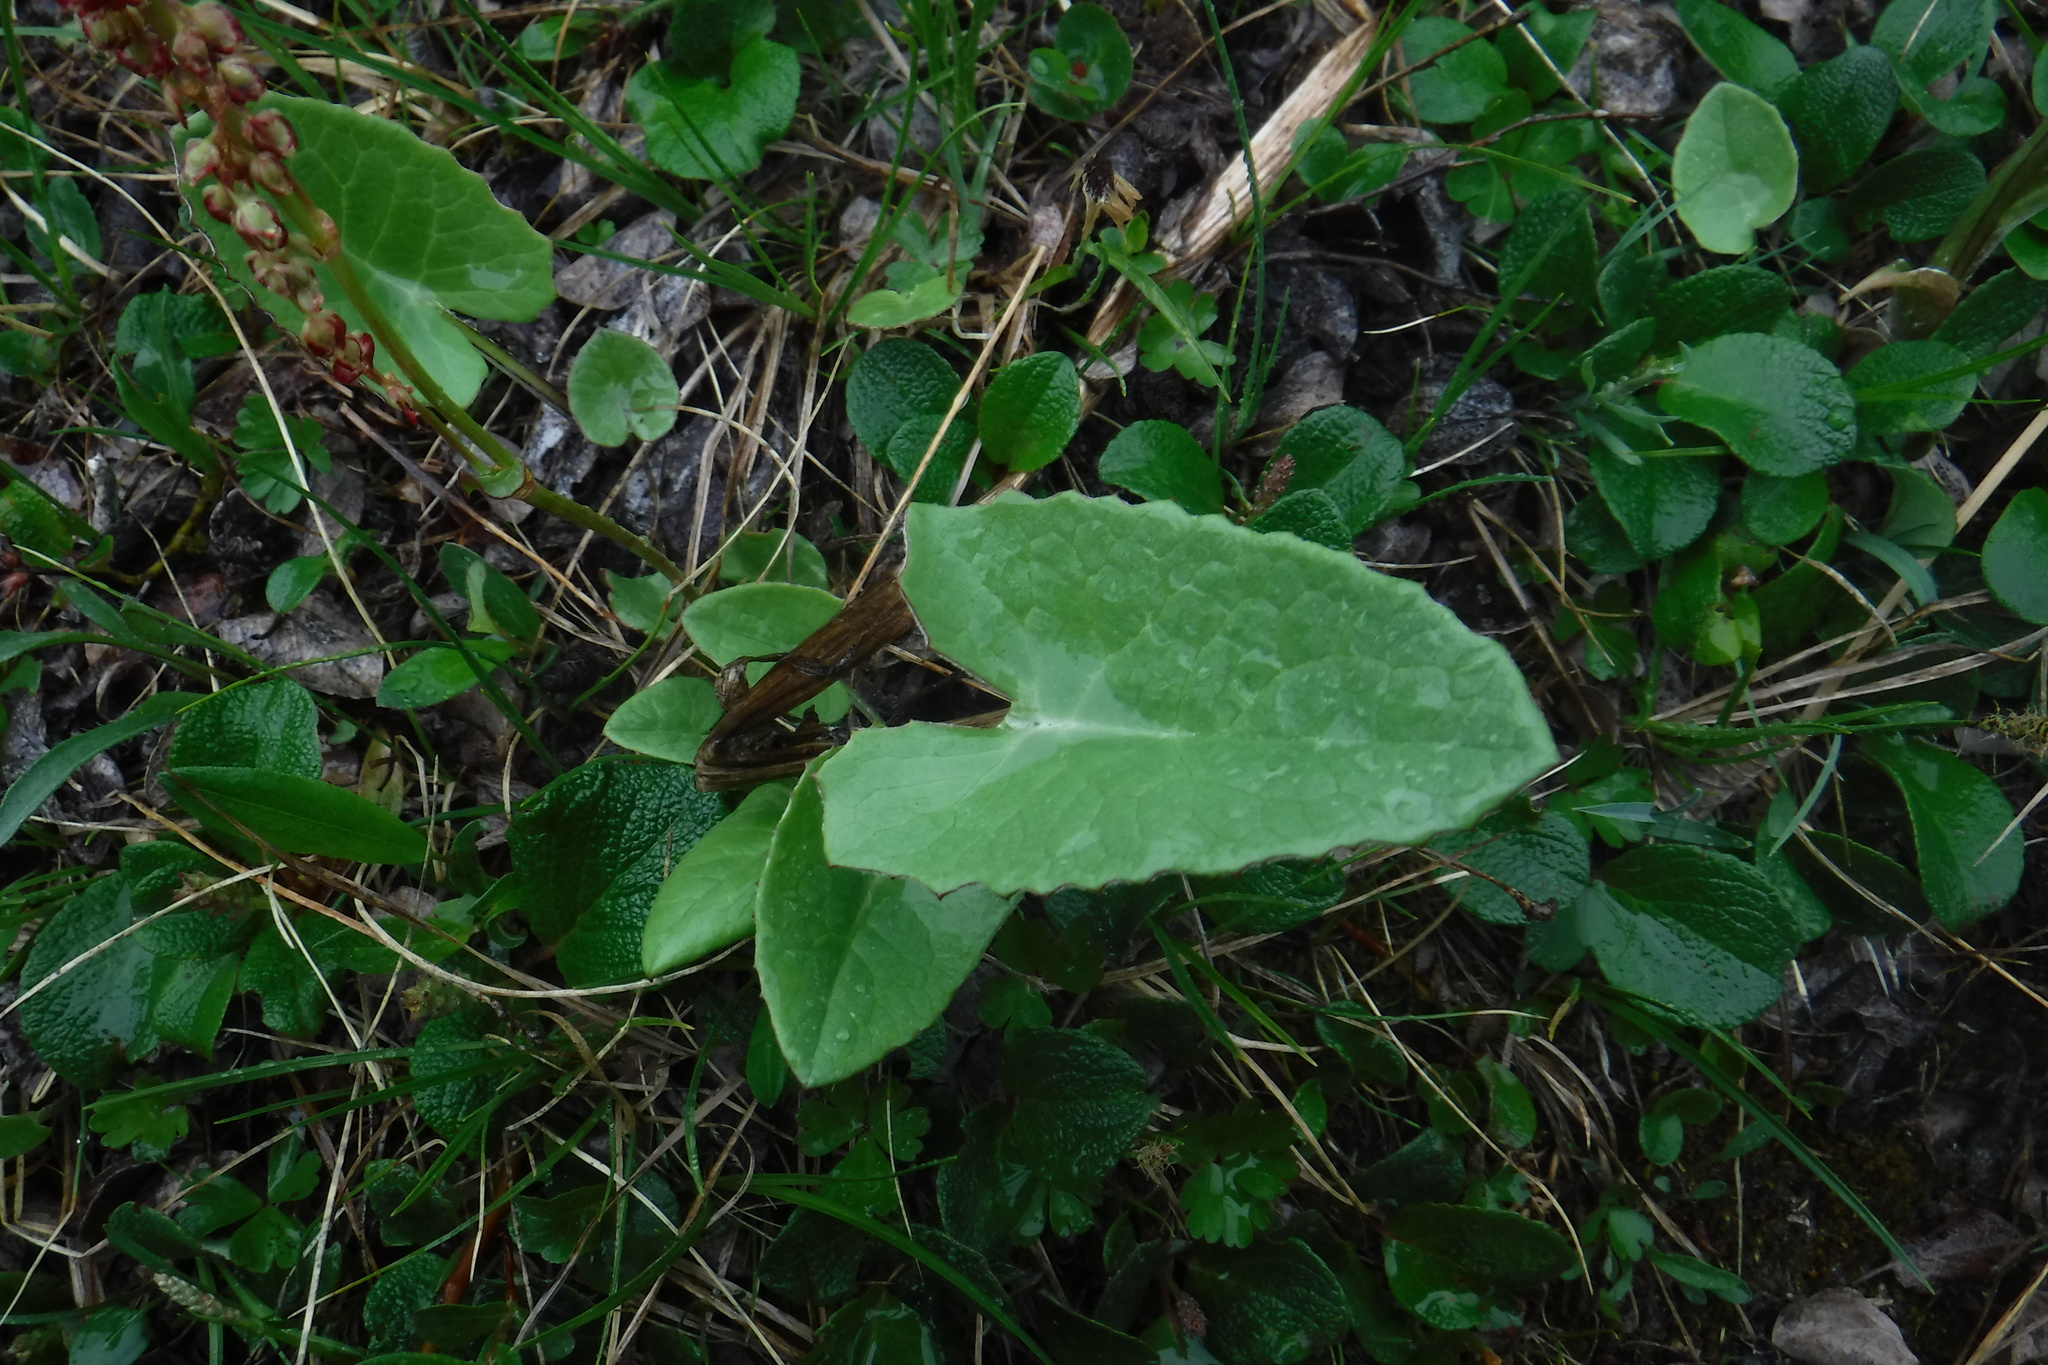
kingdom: Plantae
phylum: Tracheophyta
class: Magnoliopsida
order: Asterales
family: Asteraceae
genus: Petasites
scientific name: Petasites frigidus
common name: Arctic butterbur
